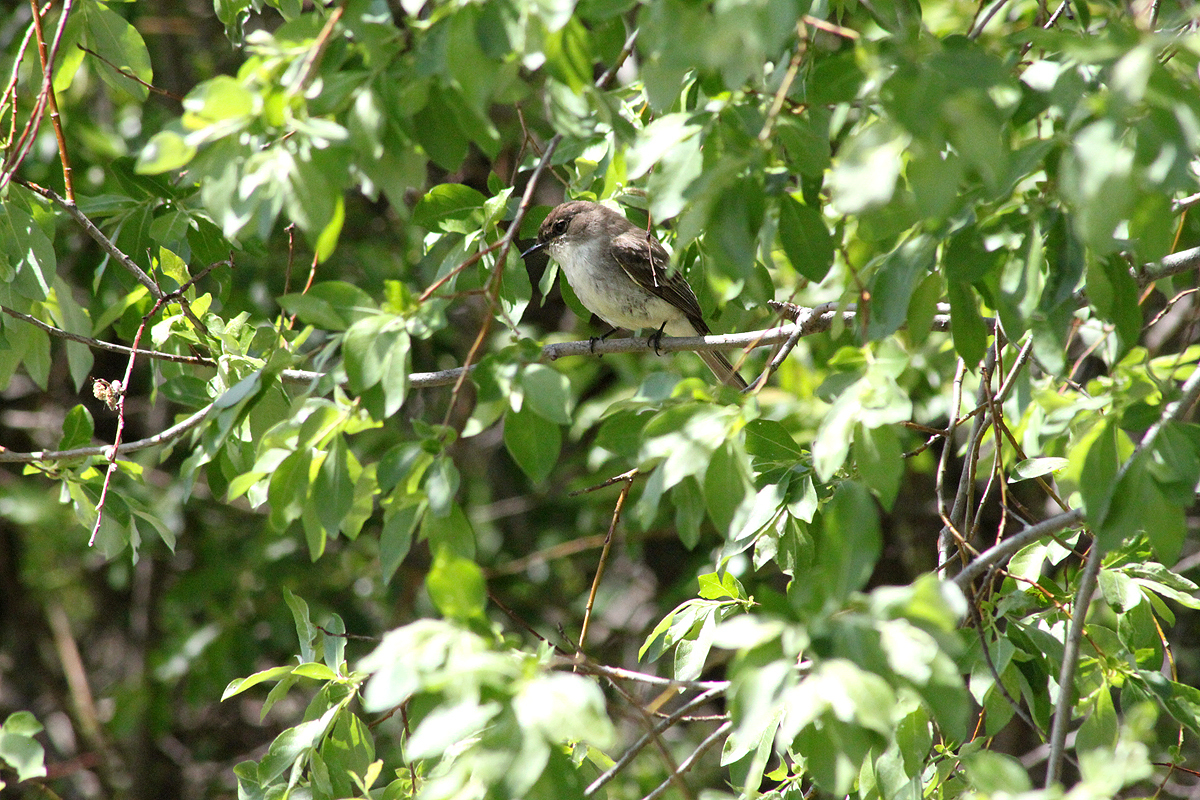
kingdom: Animalia
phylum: Chordata
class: Aves
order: Passeriformes
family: Tyrannidae
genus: Sayornis
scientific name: Sayornis phoebe
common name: Eastern phoebe
